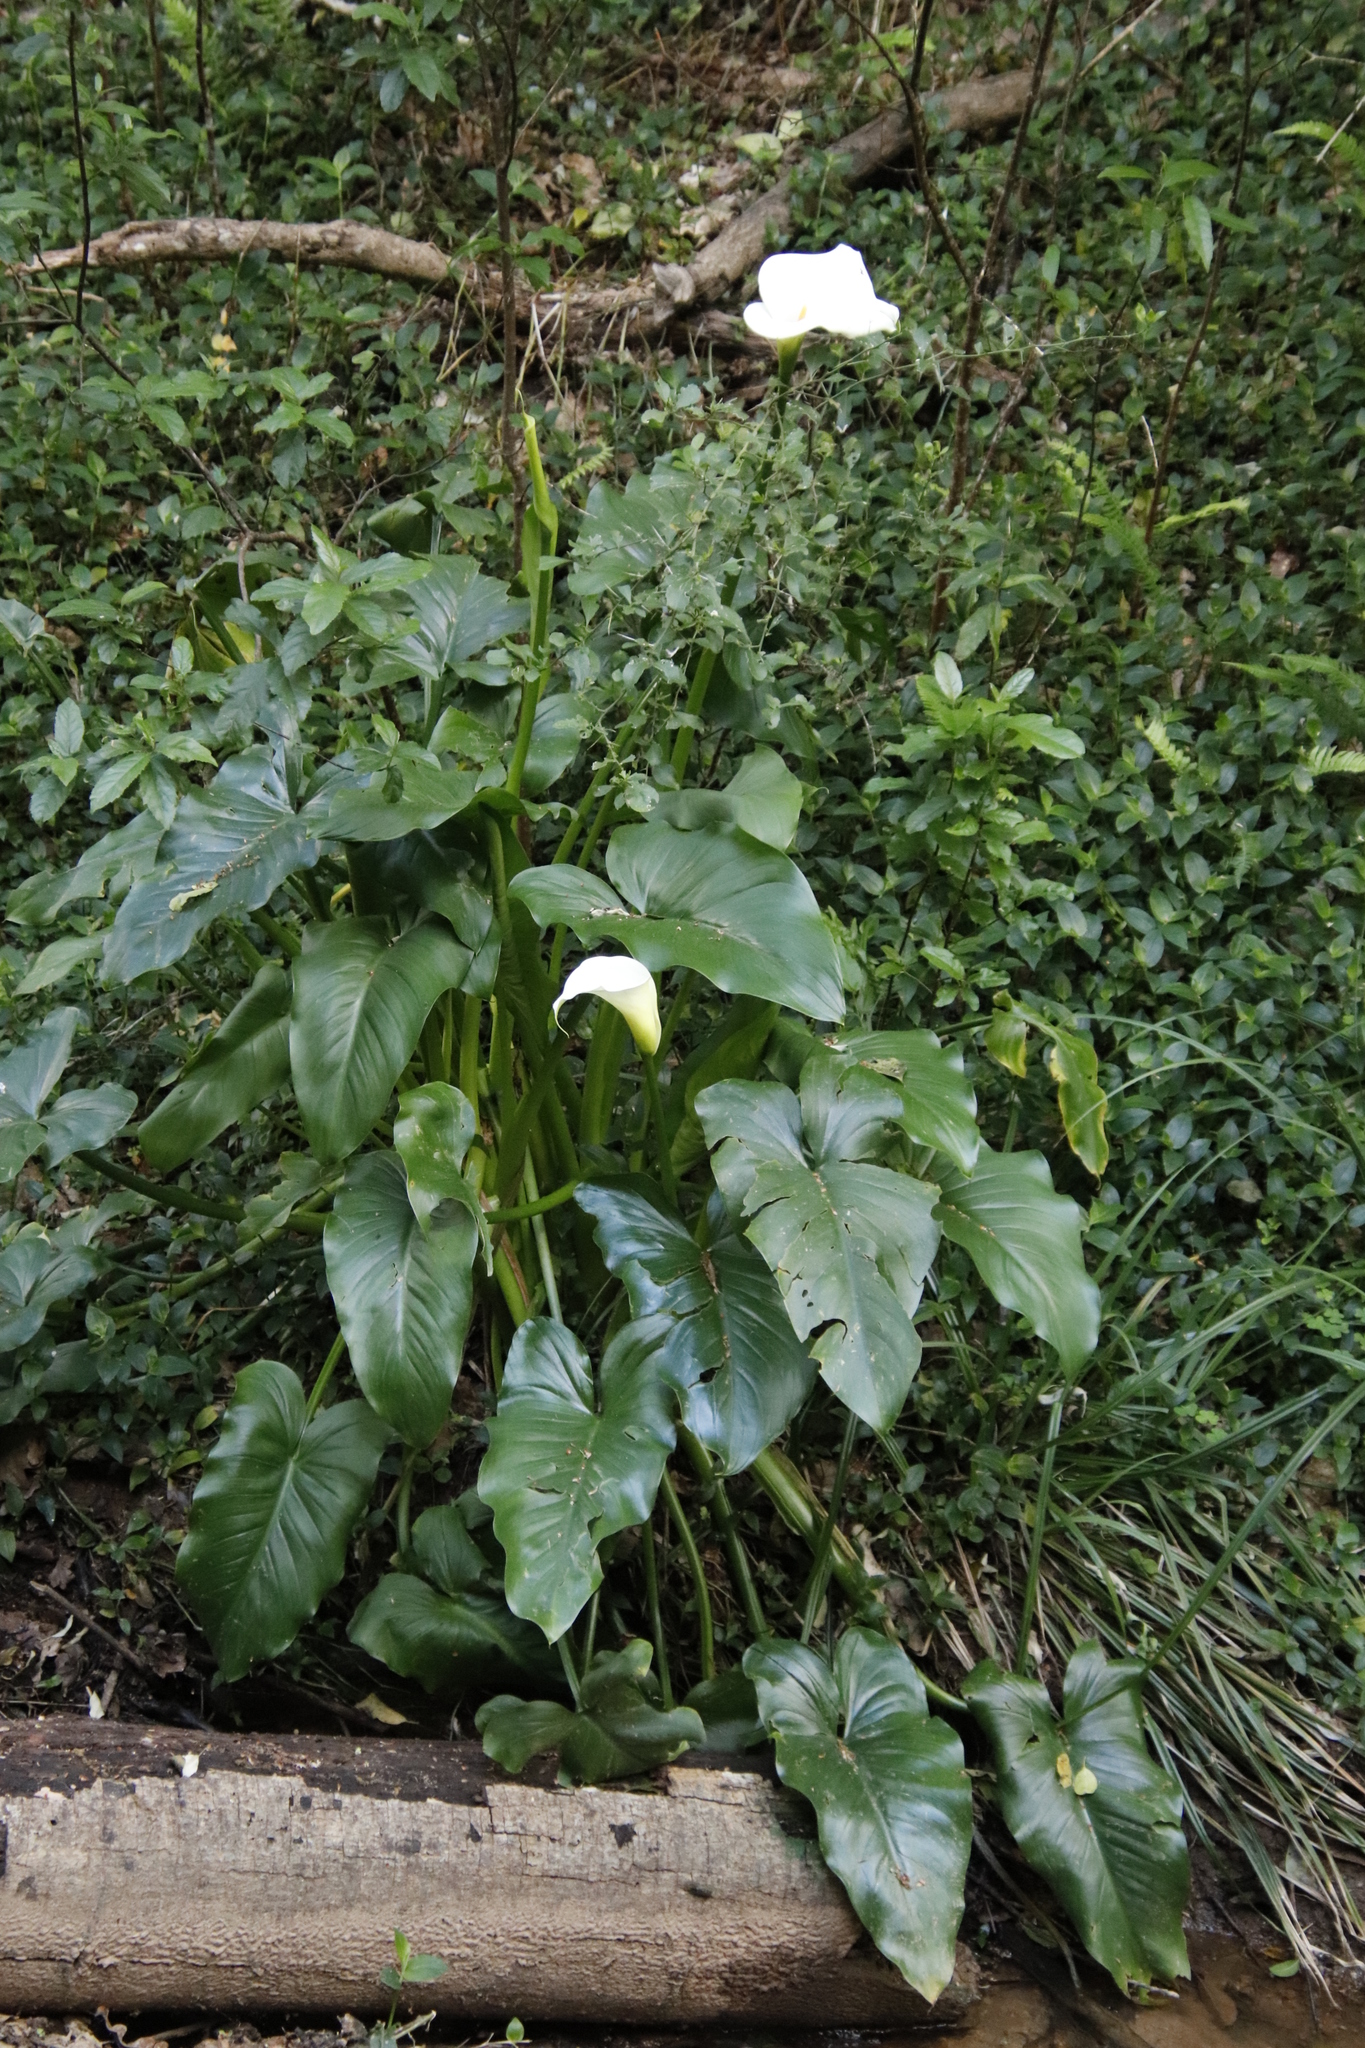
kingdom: Plantae
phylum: Tracheophyta
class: Liliopsida
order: Alismatales
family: Araceae
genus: Zantedeschia
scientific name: Zantedeschia aethiopica
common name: Altar-lily
